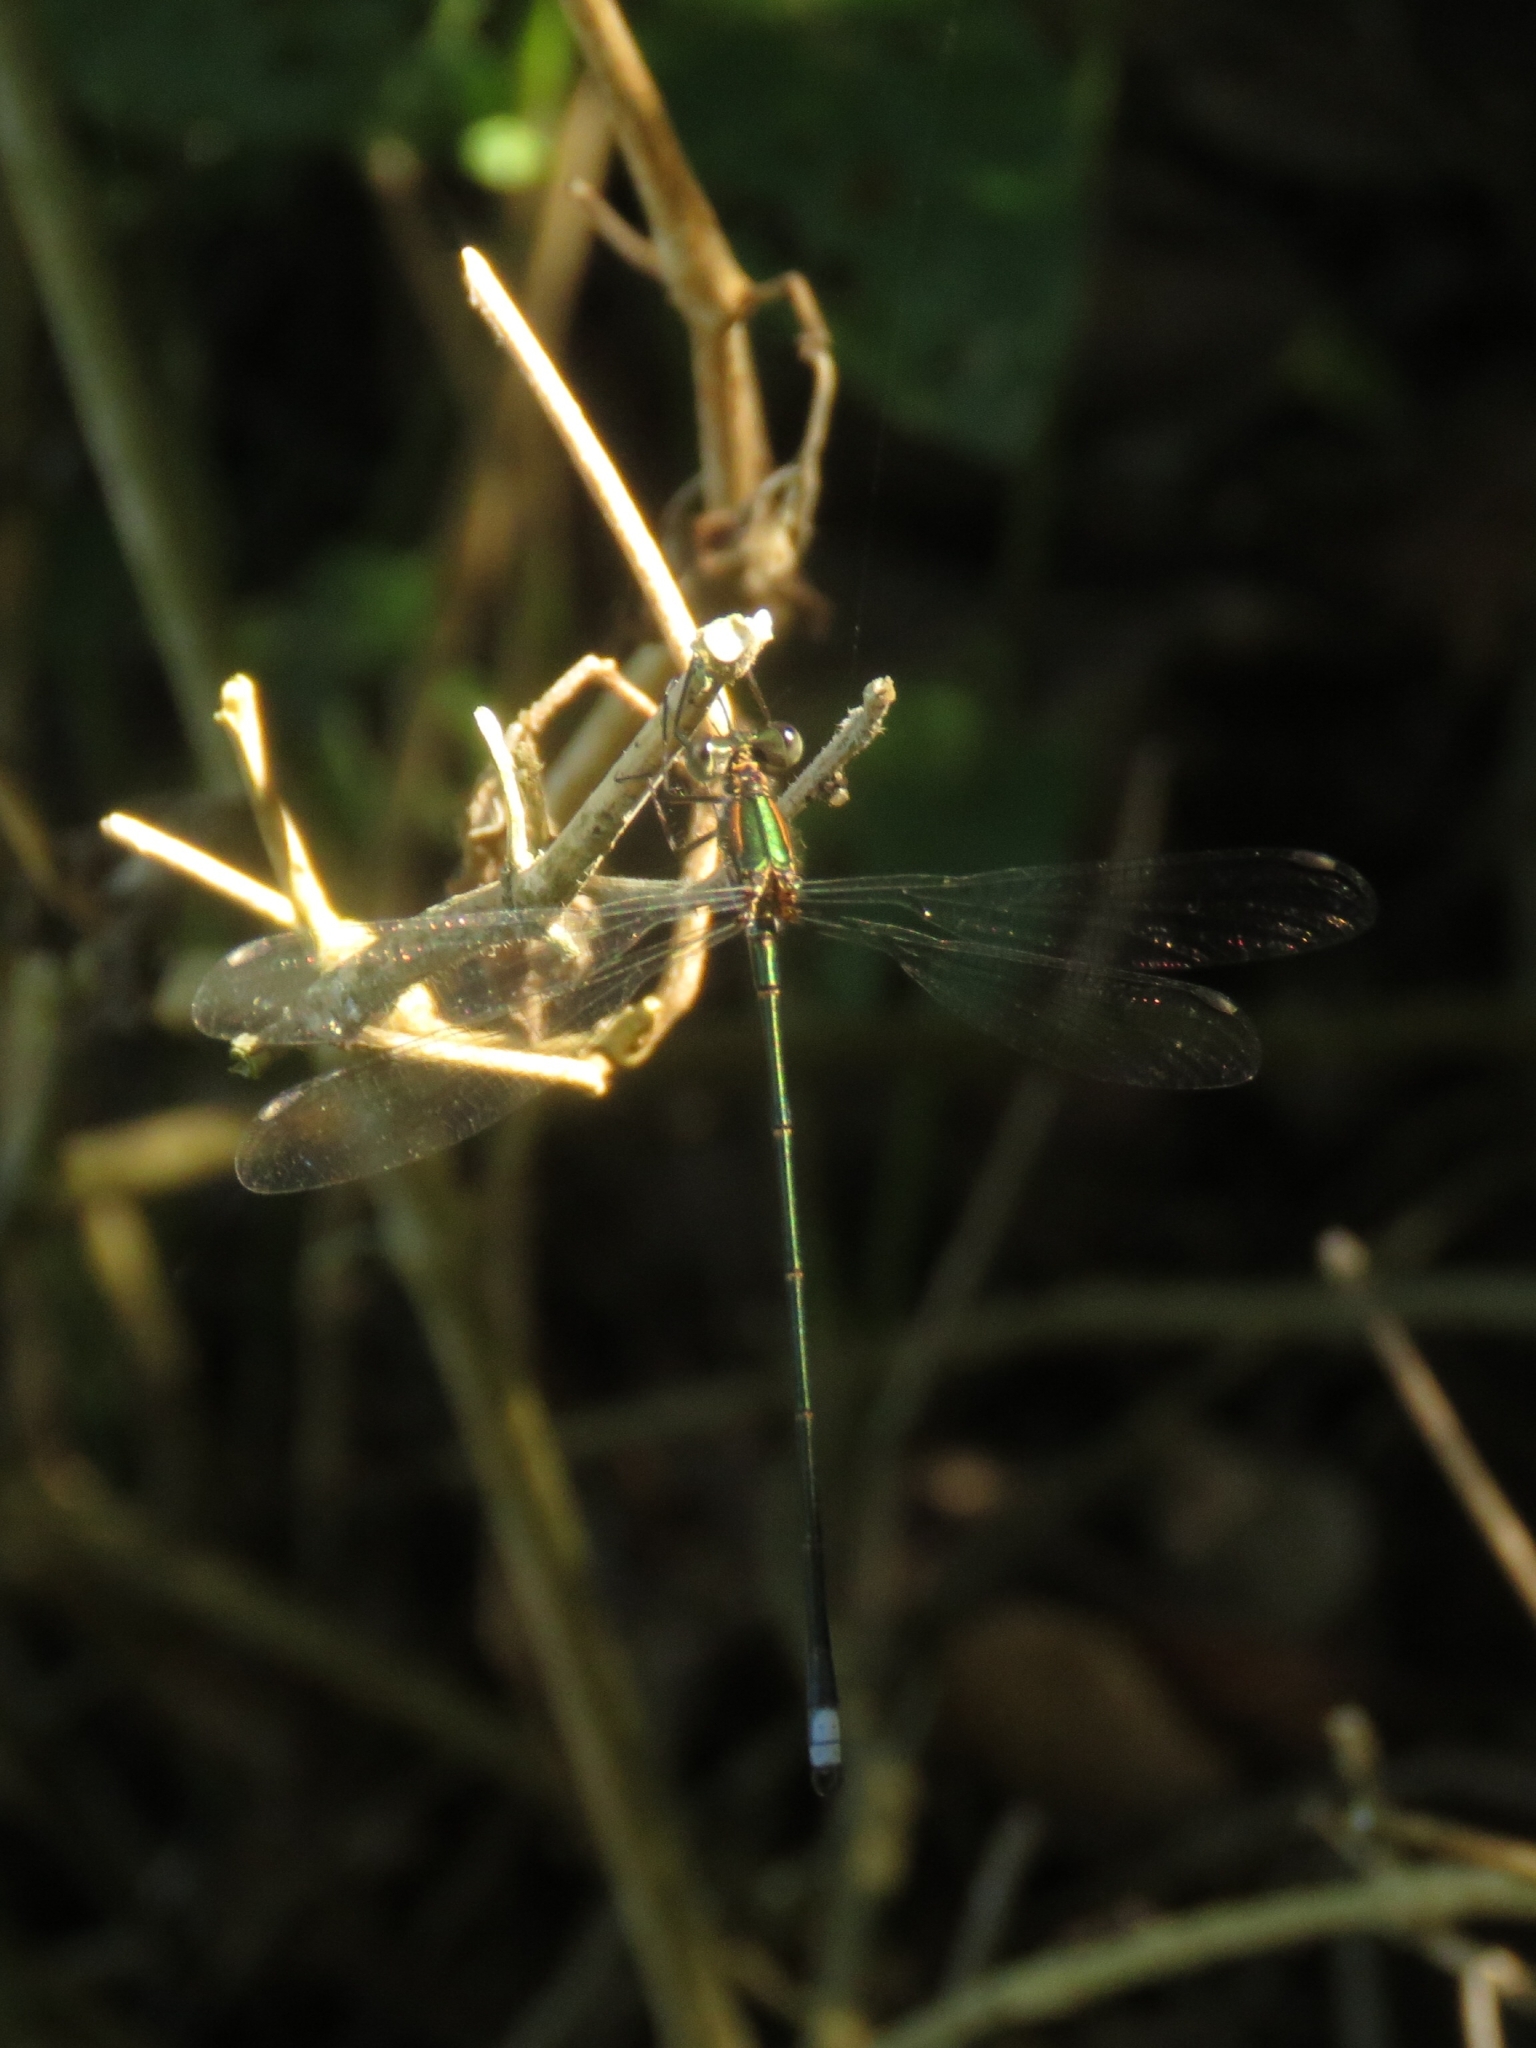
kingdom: Animalia
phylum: Arthropoda
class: Insecta
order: Odonata
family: Synlestidae
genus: Chlorolestes
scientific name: Chlorolestes tessellatus
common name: Forest malachite
